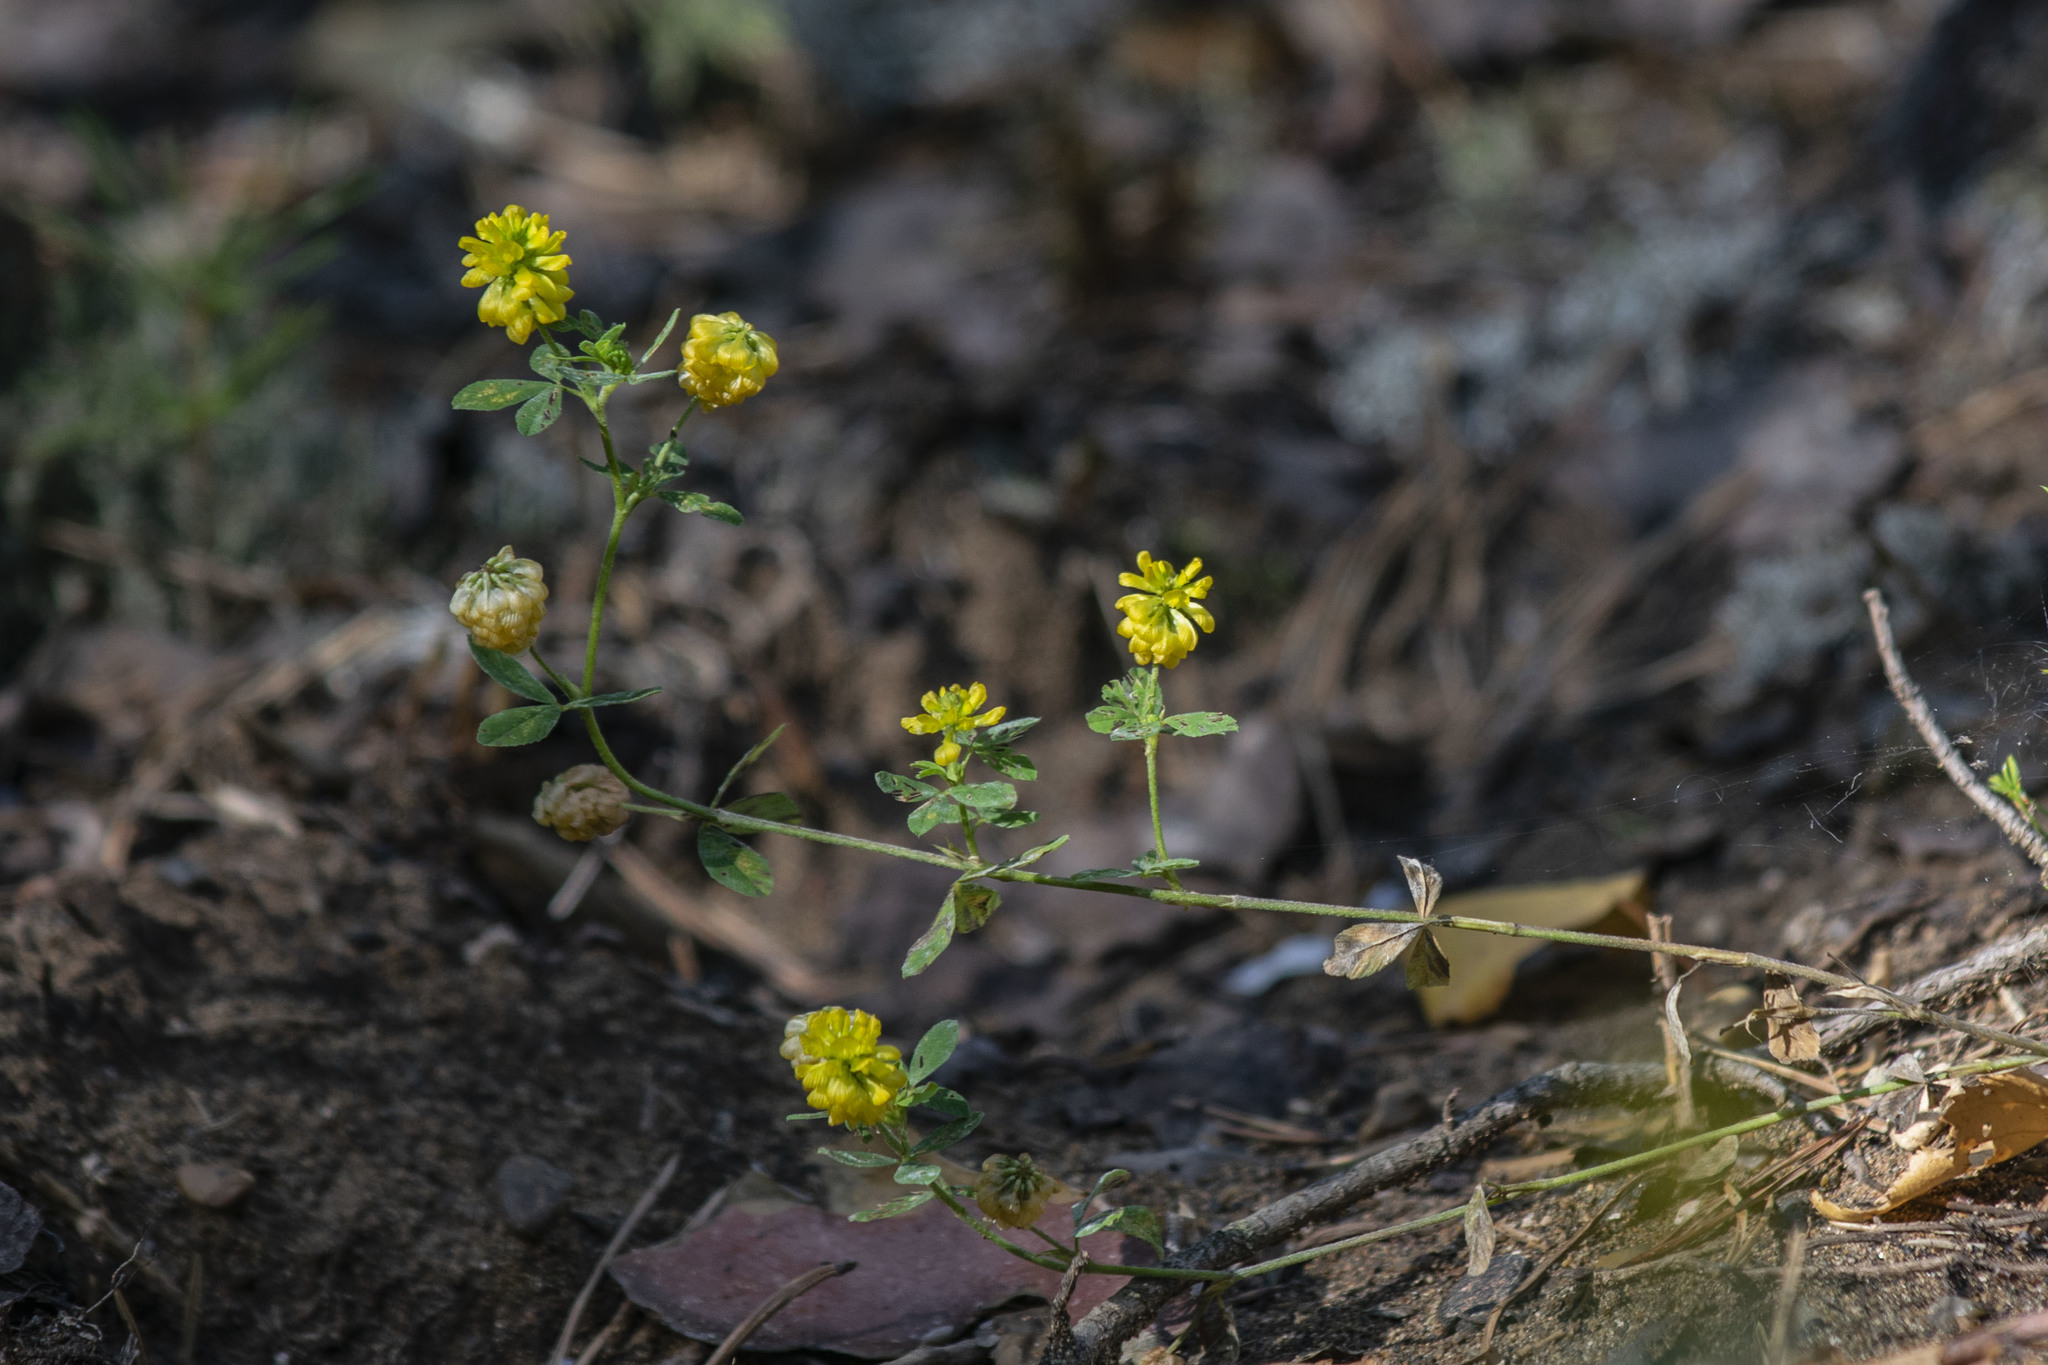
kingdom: Plantae
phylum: Tracheophyta
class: Magnoliopsida
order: Fabales
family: Fabaceae
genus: Trifolium
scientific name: Trifolium aureum
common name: Golden clover
